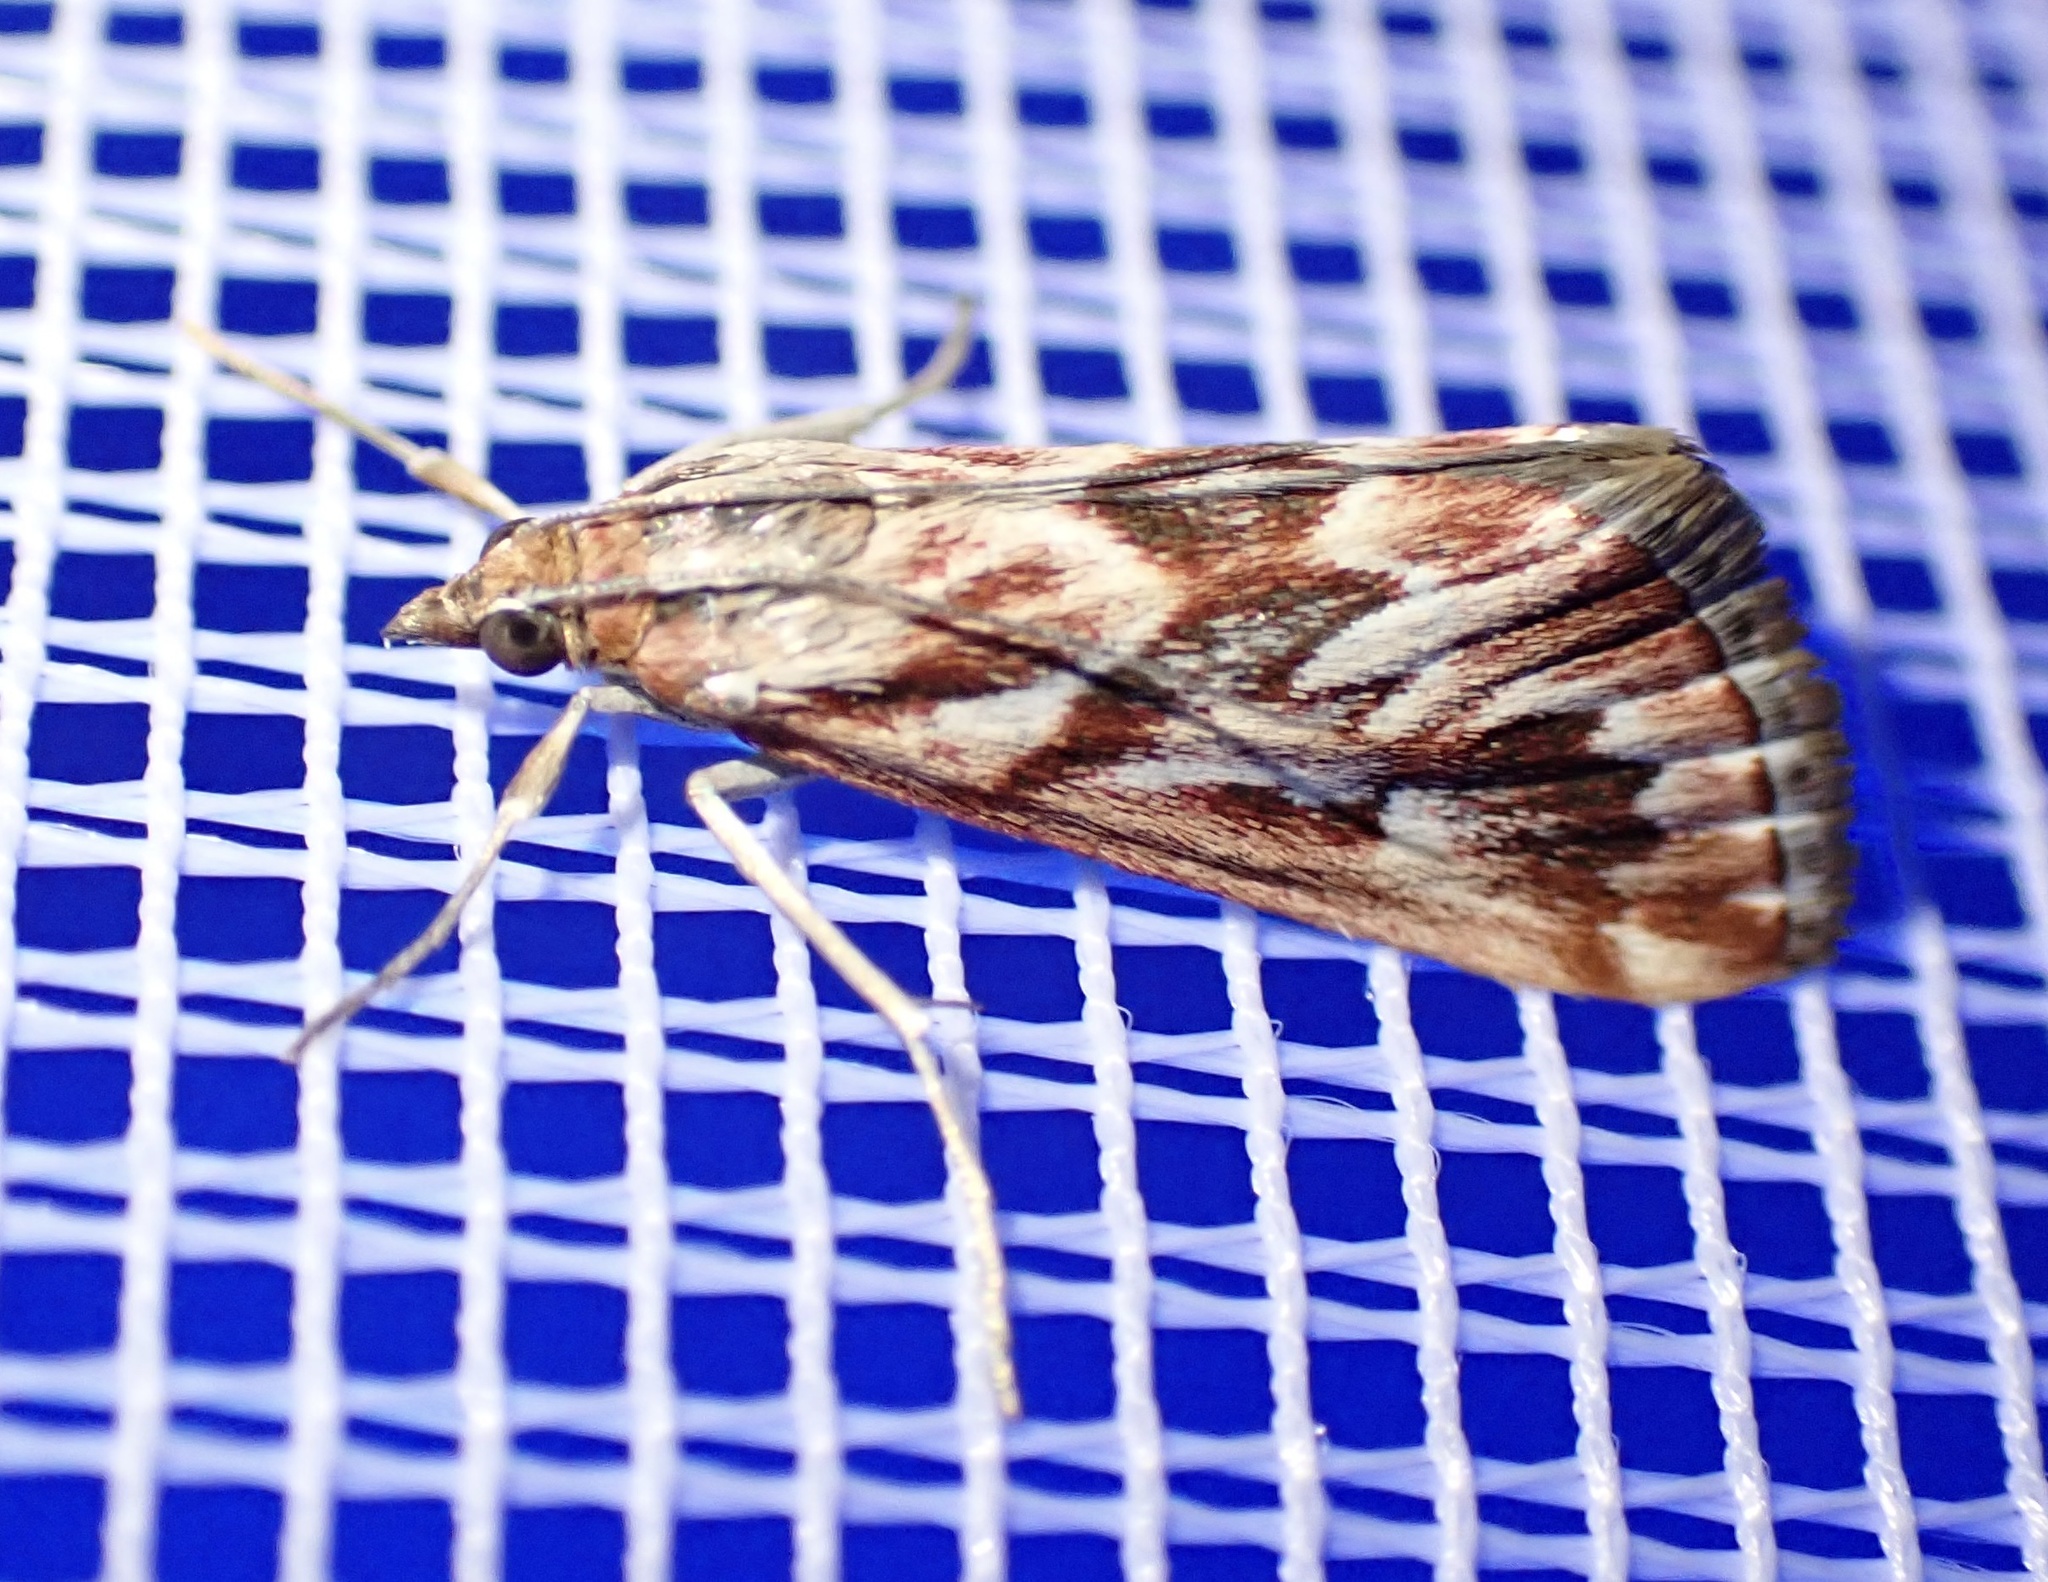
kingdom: Animalia
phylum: Arthropoda
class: Insecta
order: Lepidoptera
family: Crambidae
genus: Blepharucha
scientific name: Blepharucha zaide
